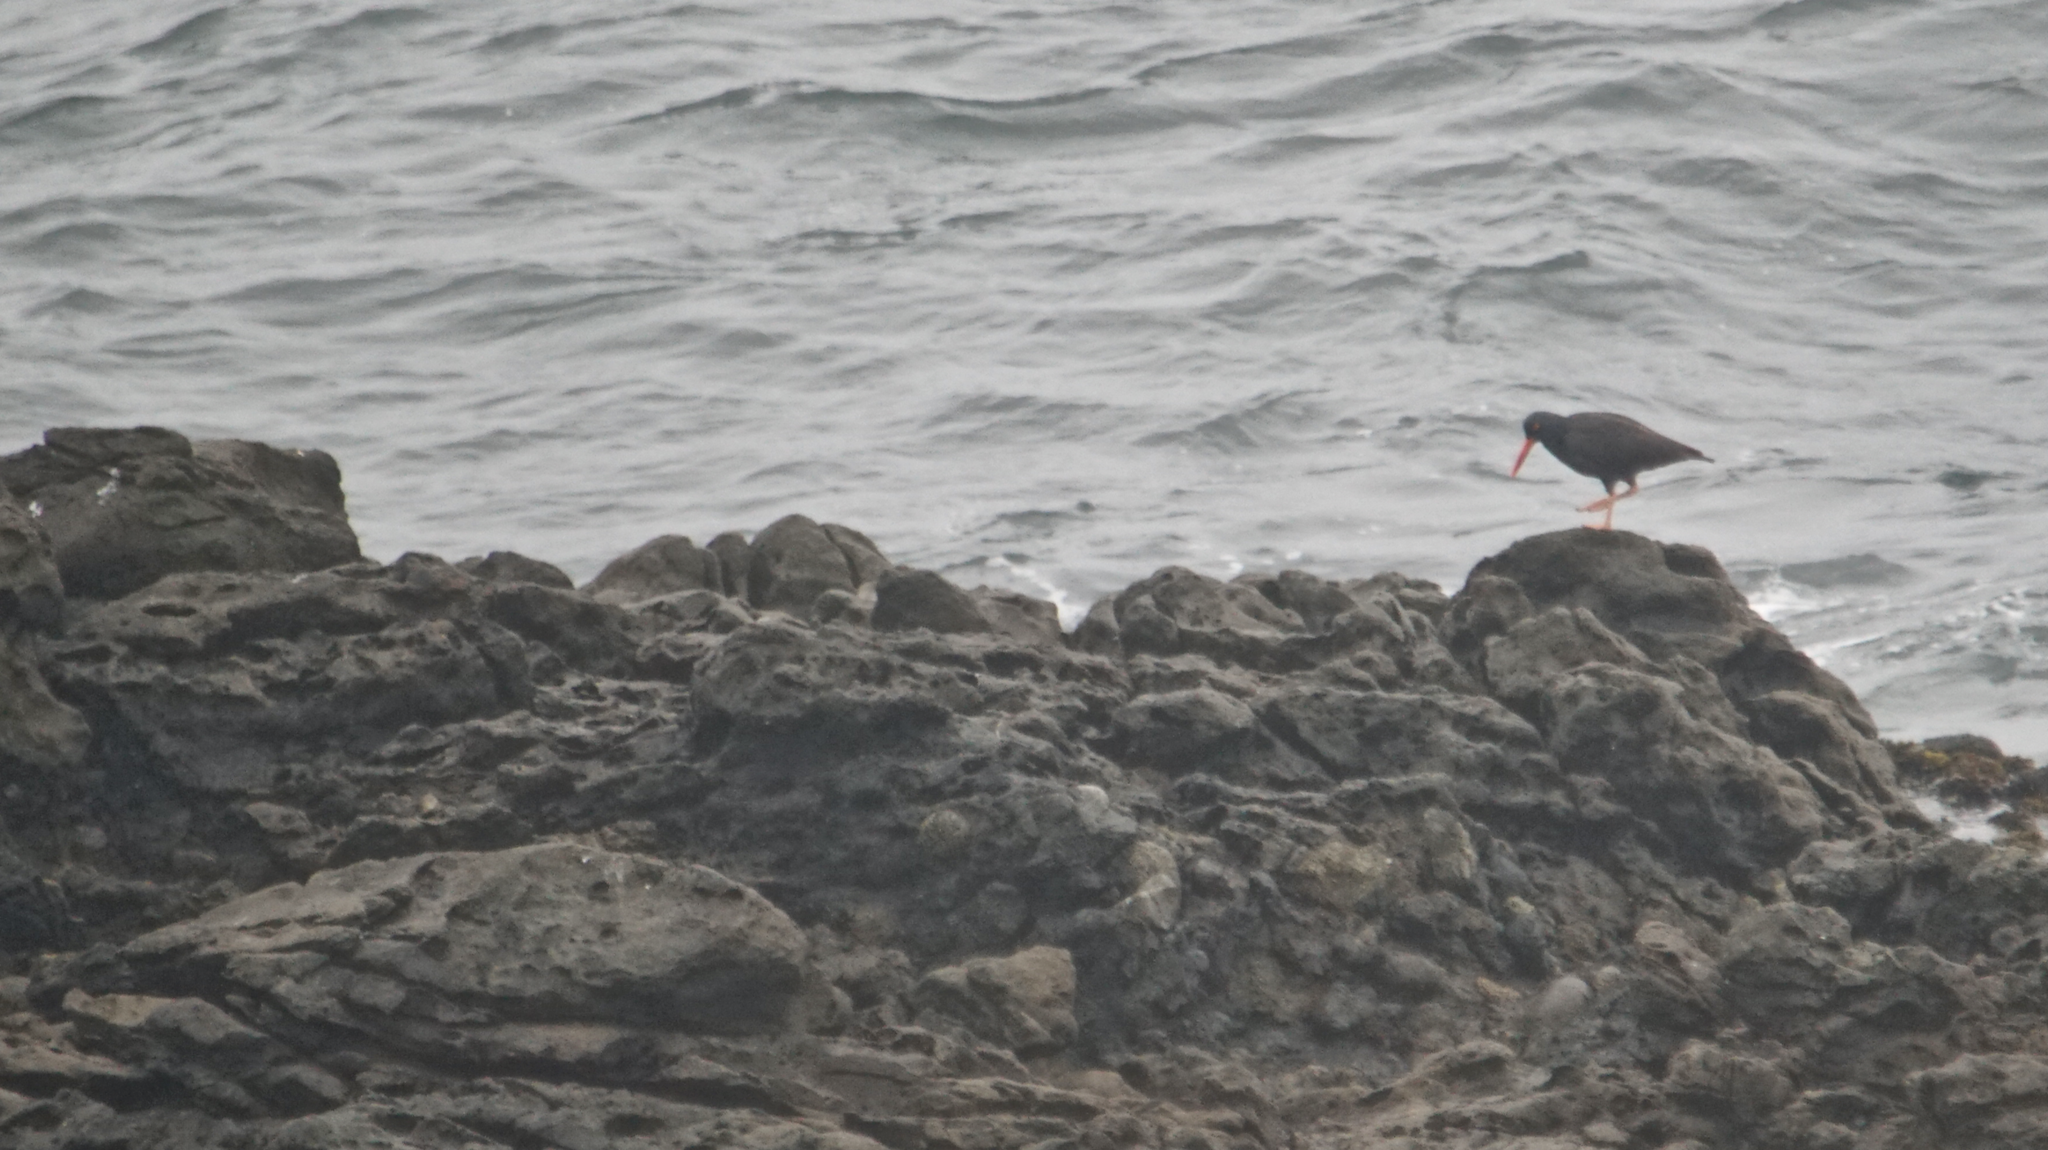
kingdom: Animalia
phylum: Chordata
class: Aves
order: Charadriiformes
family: Haematopodidae
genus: Haematopus
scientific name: Haematopus bachmani
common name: Black oystercatcher
